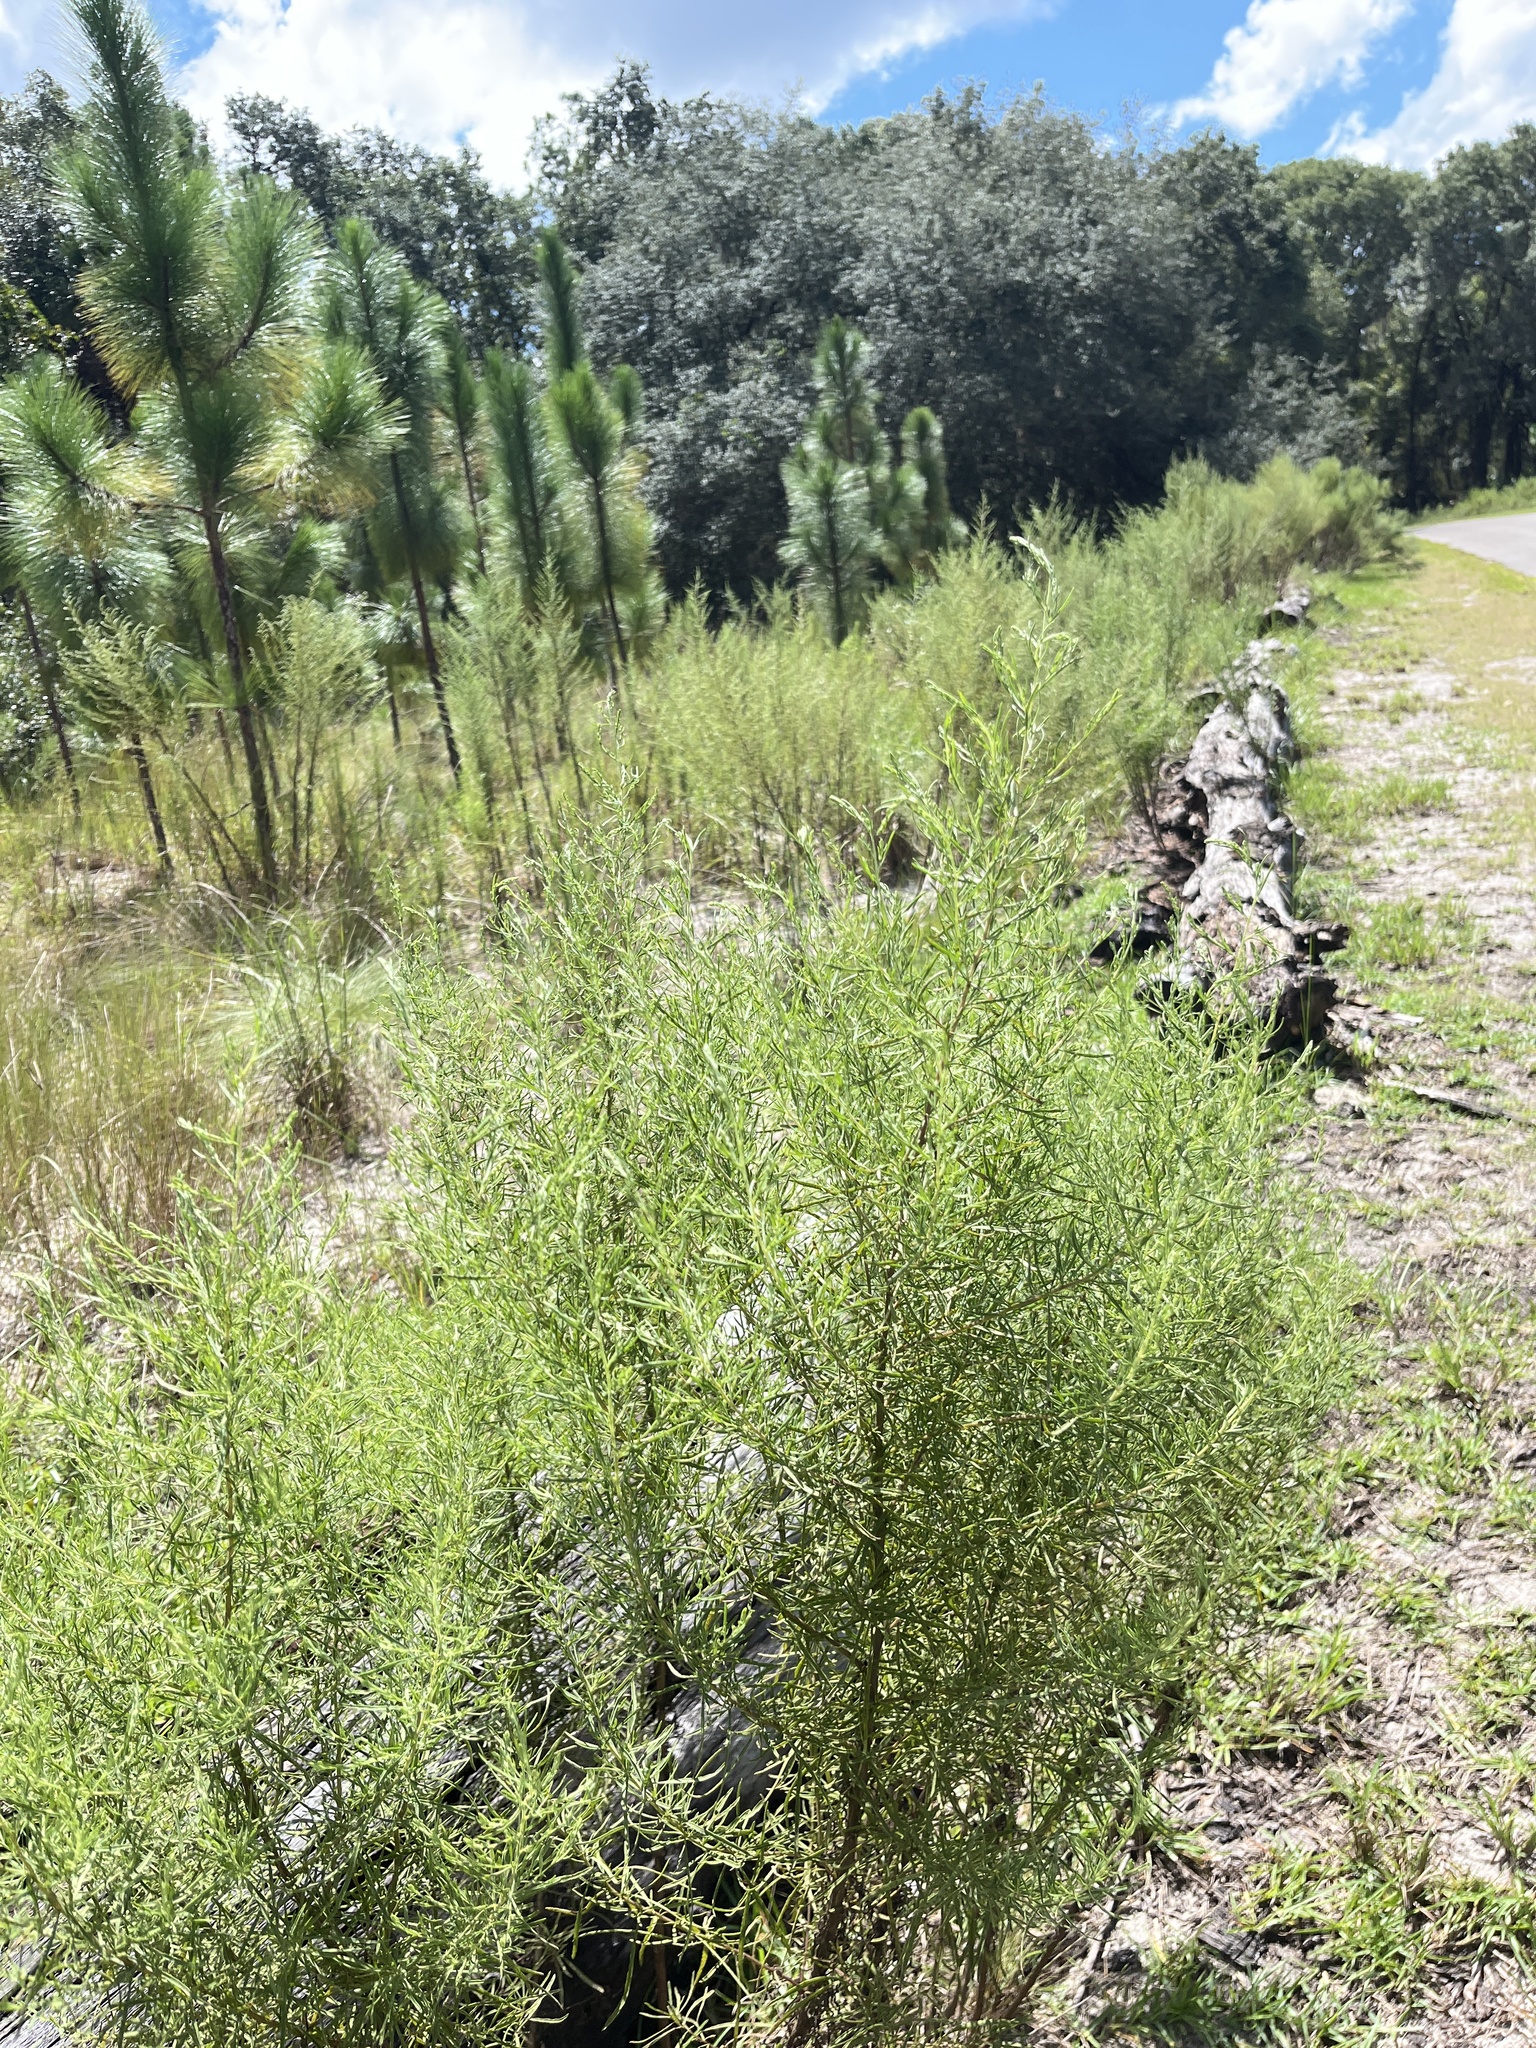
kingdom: Plantae
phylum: Tracheophyta
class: Magnoliopsida
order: Asterales
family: Asteraceae
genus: Eupatorium
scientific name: Eupatorium compositifolium
